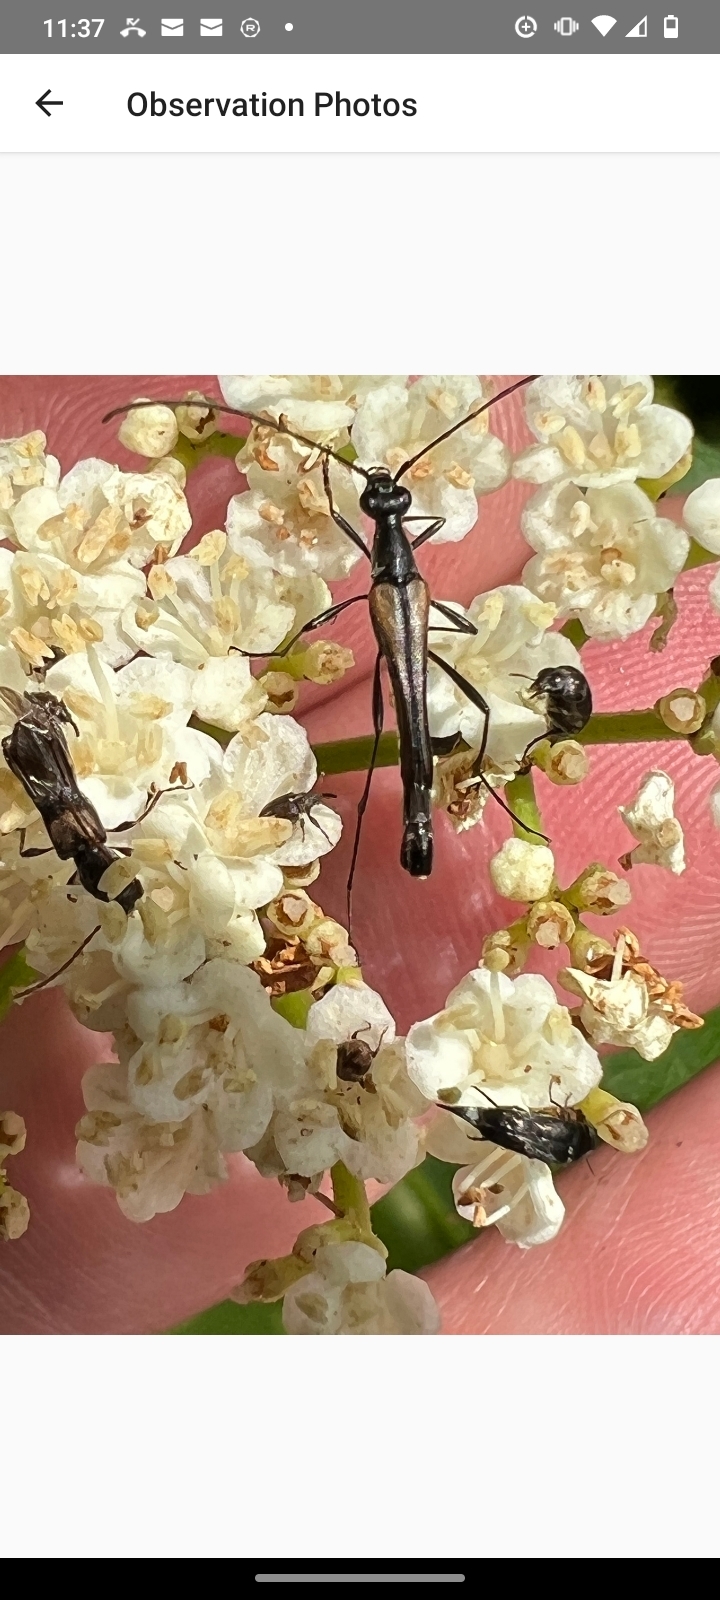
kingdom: Animalia
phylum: Arthropoda
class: Insecta
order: Coleoptera
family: Cerambycidae
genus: Molorchus
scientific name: Molorchus bimaculatus
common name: Bimaculate longhorn beetle
